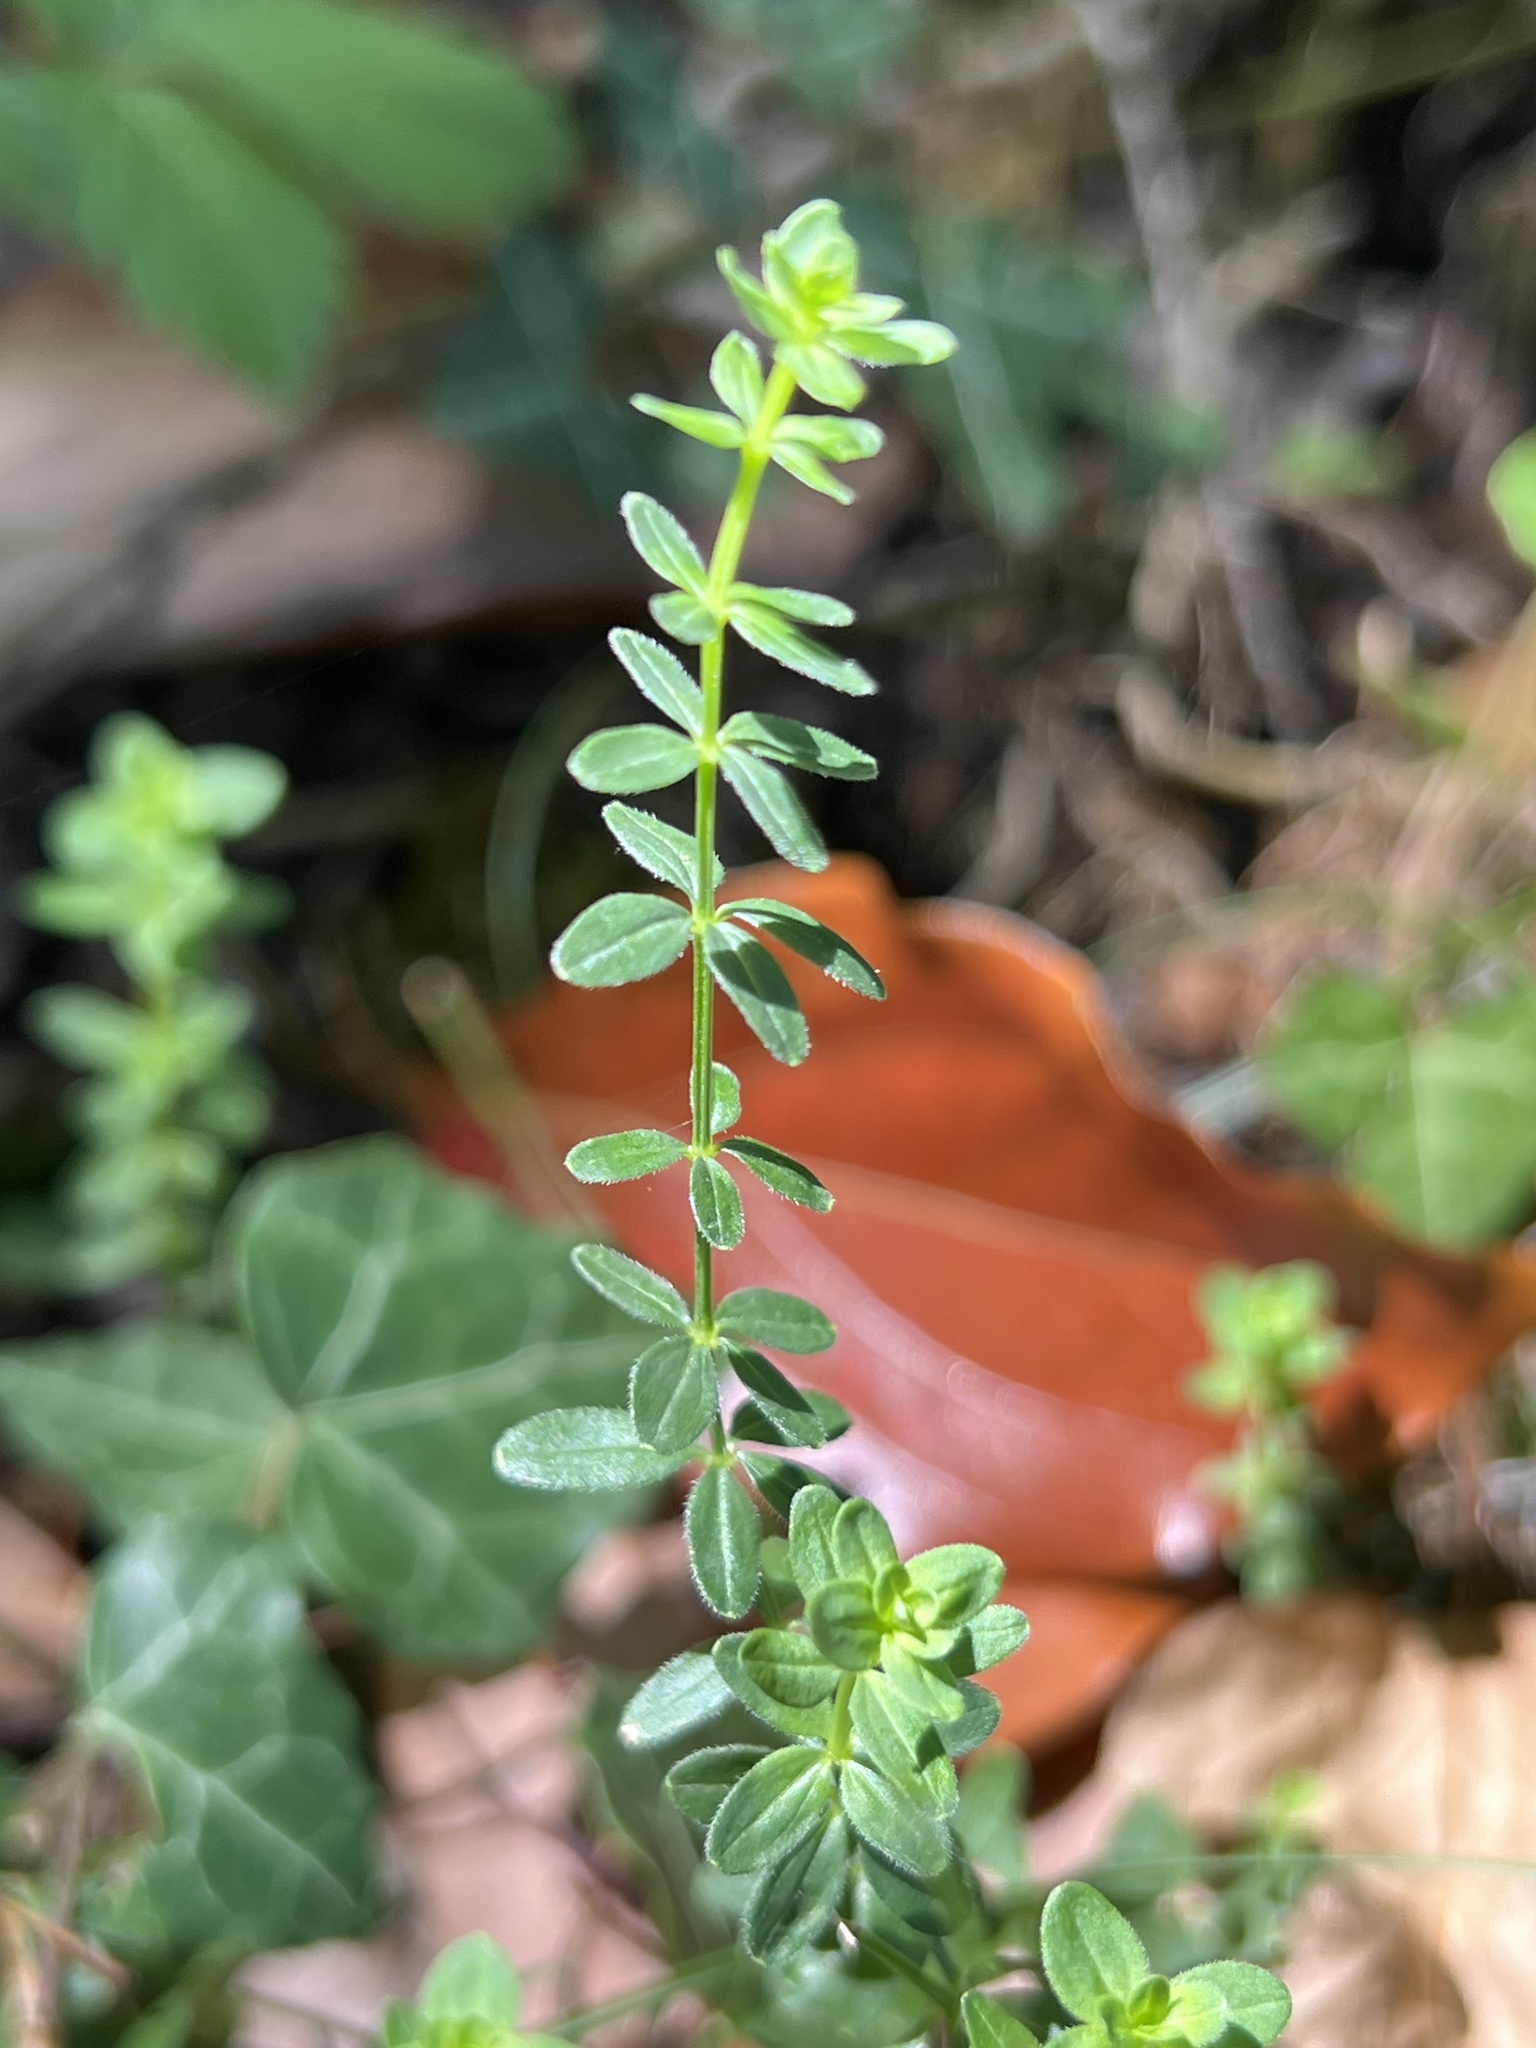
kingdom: Plantae
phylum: Tracheophyta
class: Magnoliopsida
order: Gentianales
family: Rubiaceae
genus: Cruciata
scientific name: Cruciata glabra
